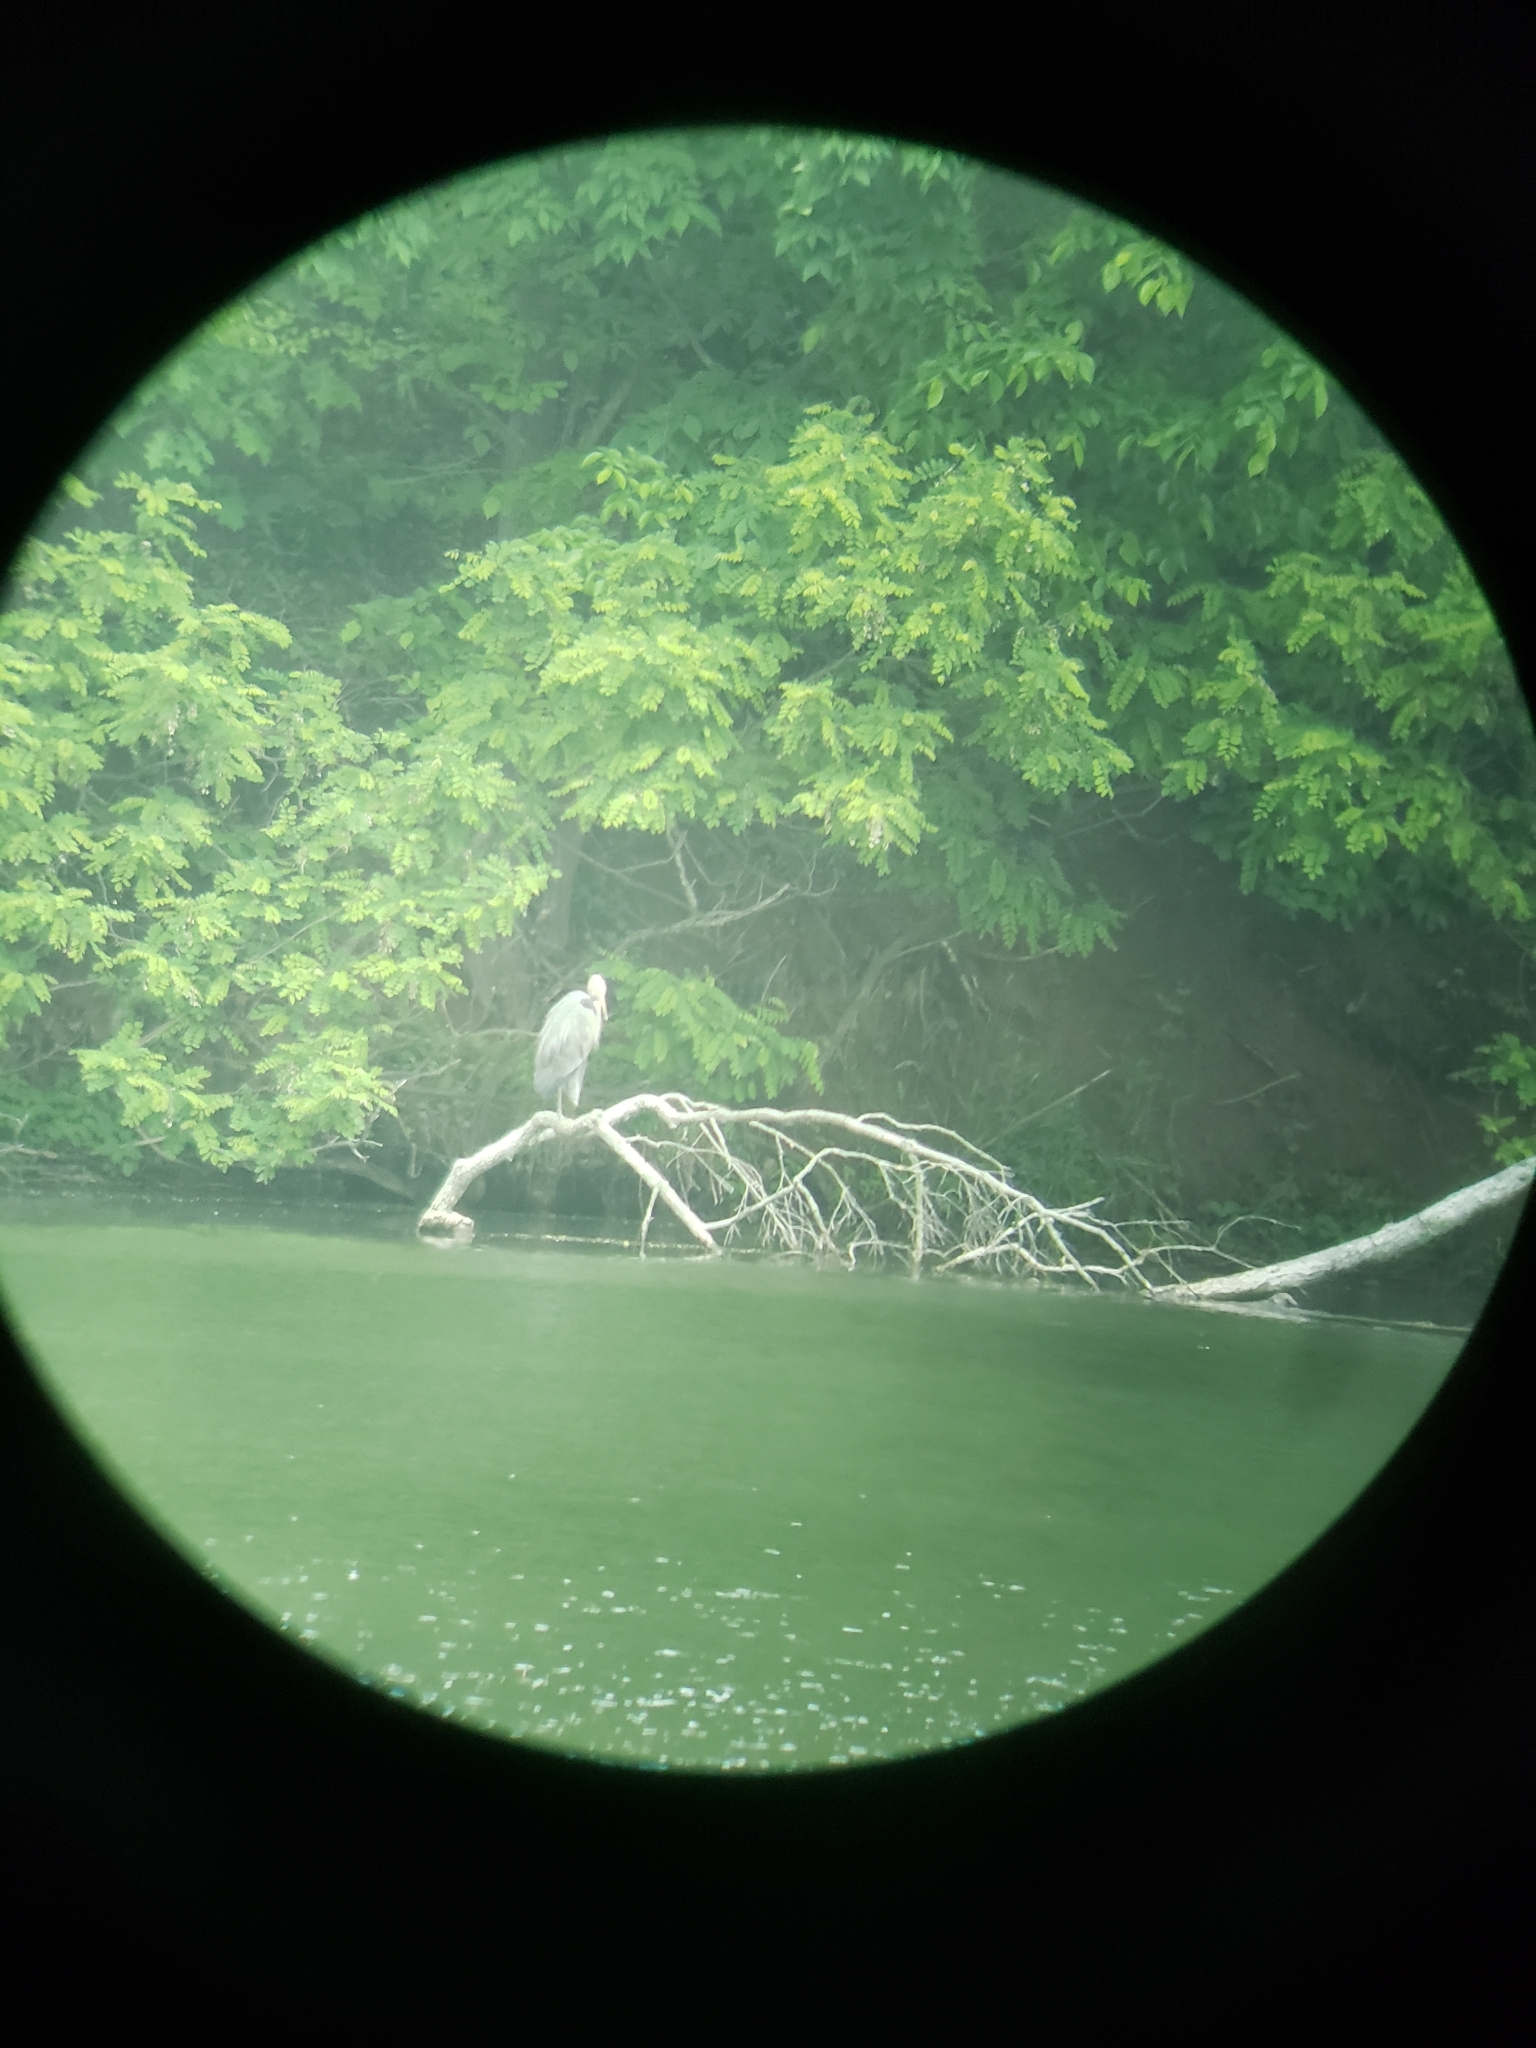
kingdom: Animalia
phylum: Chordata
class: Aves
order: Pelecaniformes
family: Ardeidae
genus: Ardea
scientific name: Ardea herodias
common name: Great blue heron
